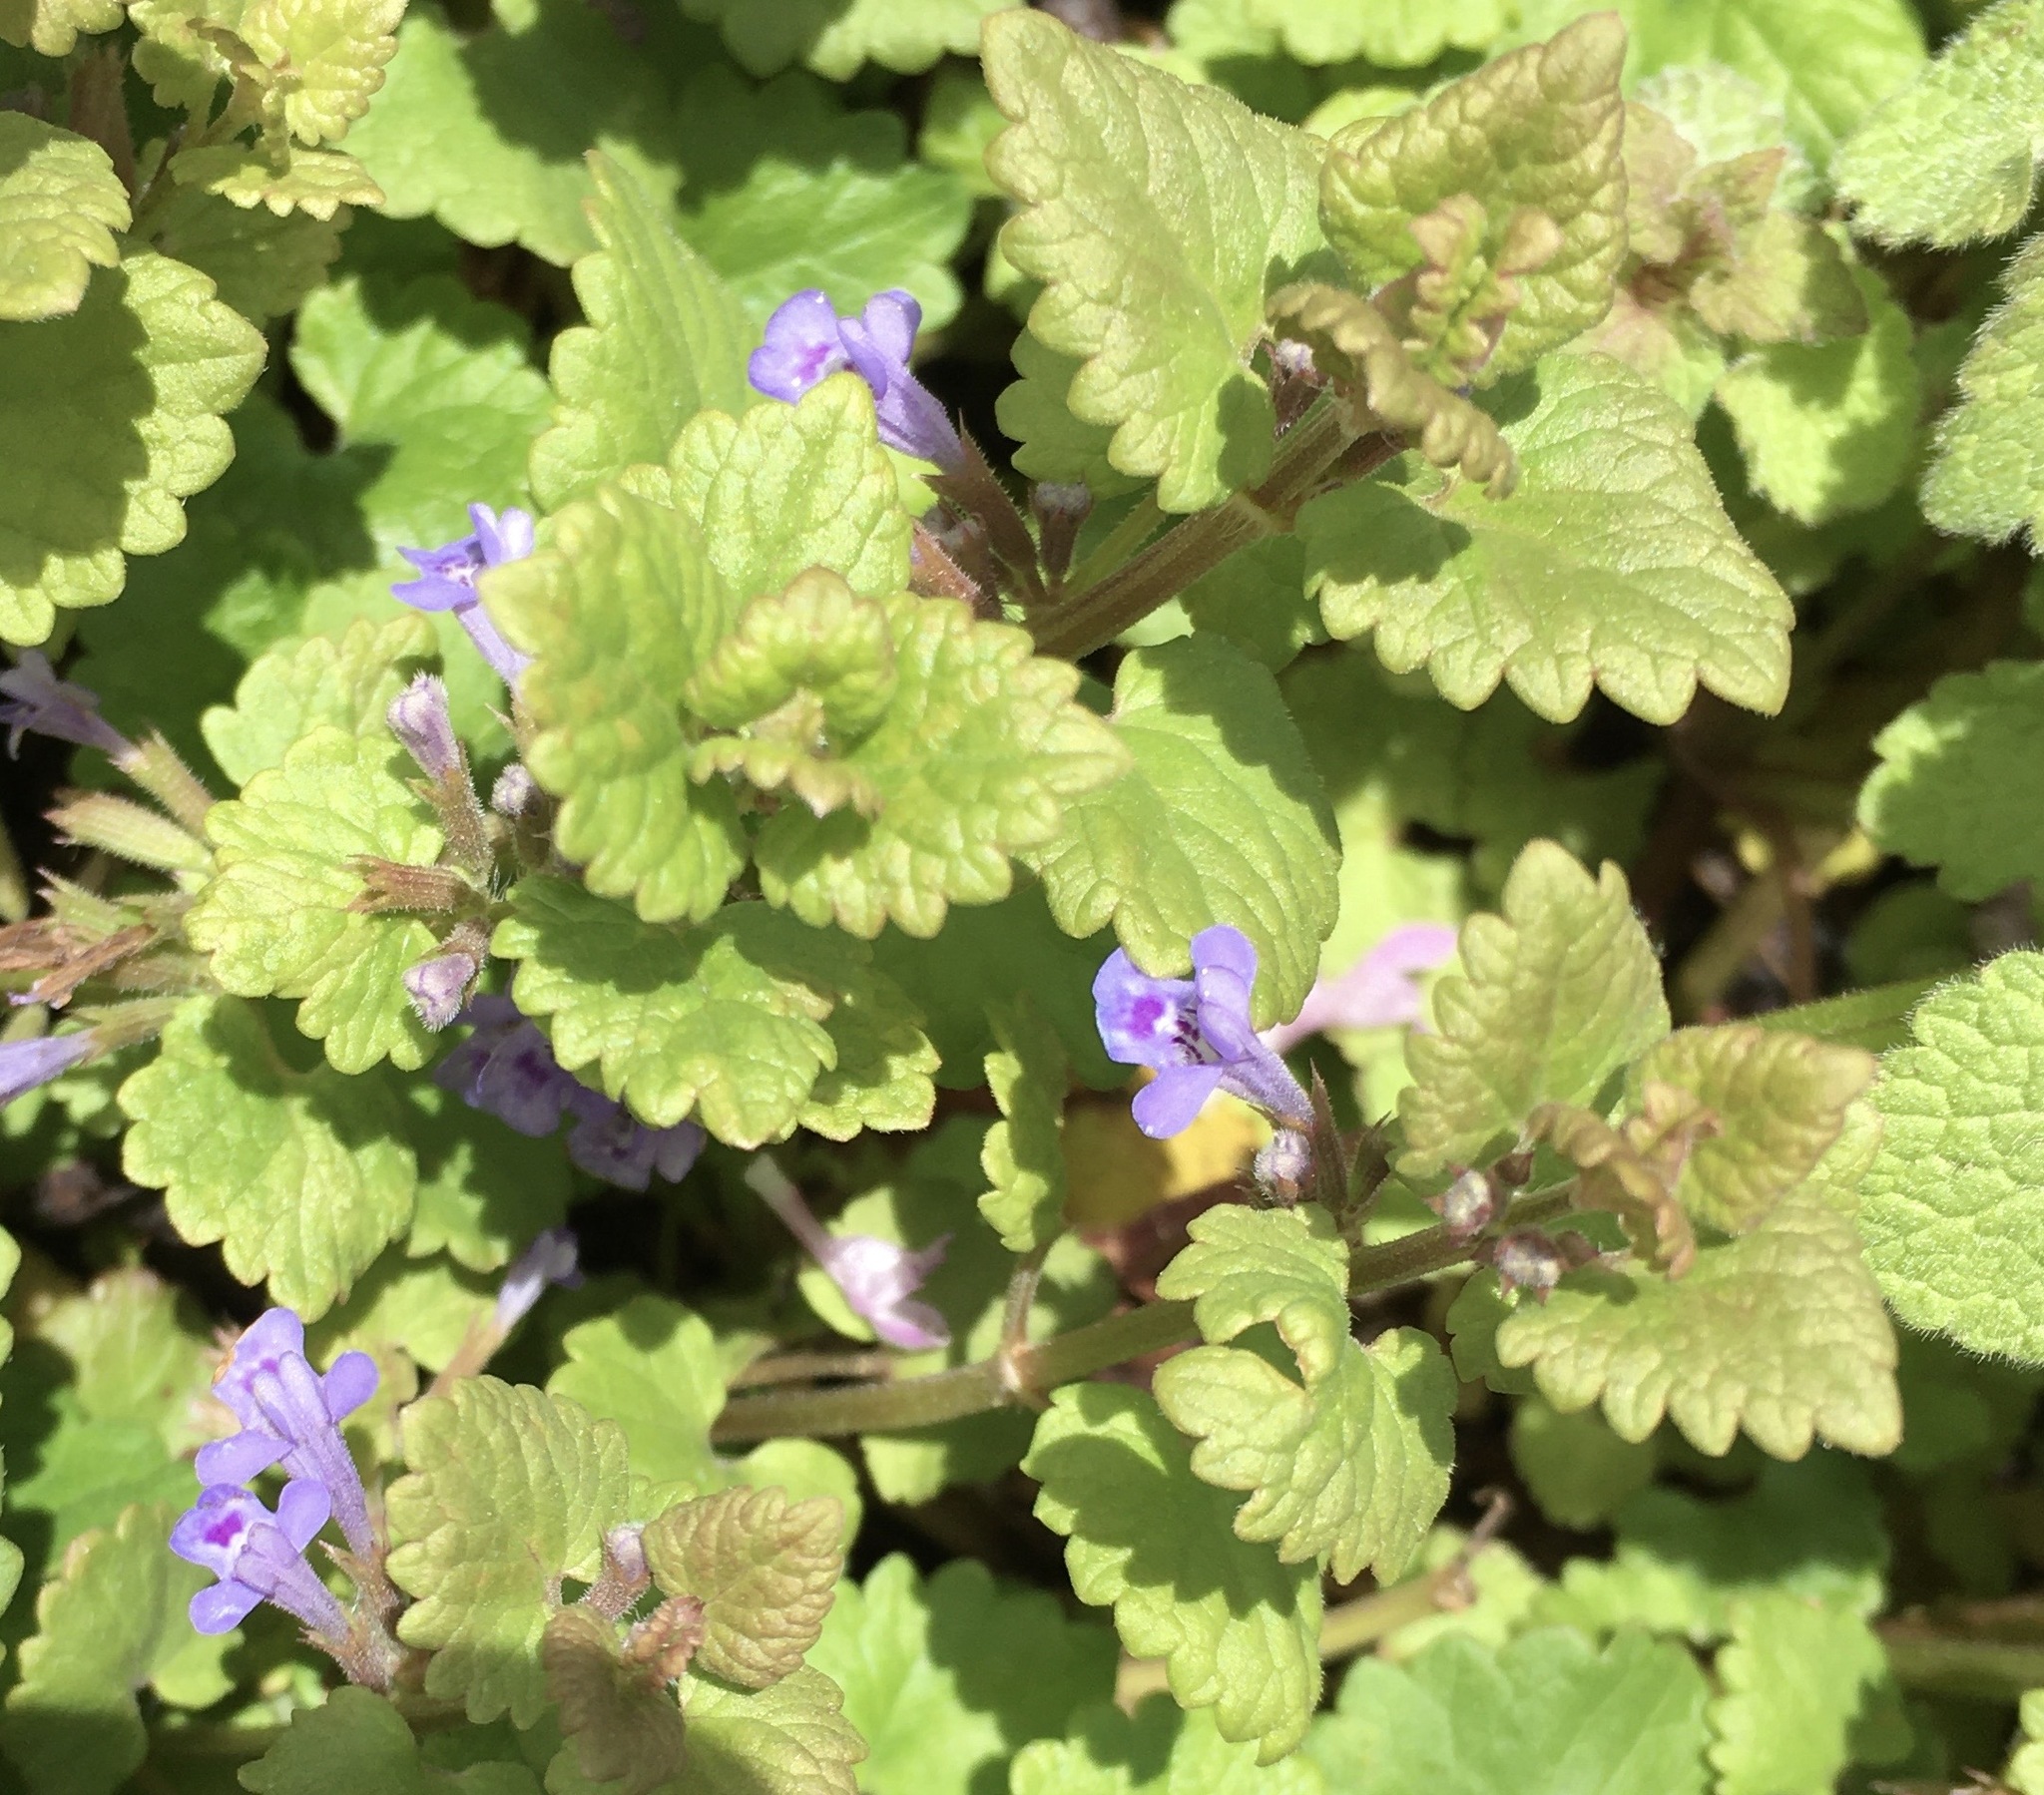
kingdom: Plantae
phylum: Tracheophyta
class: Magnoliopsida
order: Lamiales
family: Lamiaceae
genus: Glechoma
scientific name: Glechoma hederacea
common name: Ground ivy
